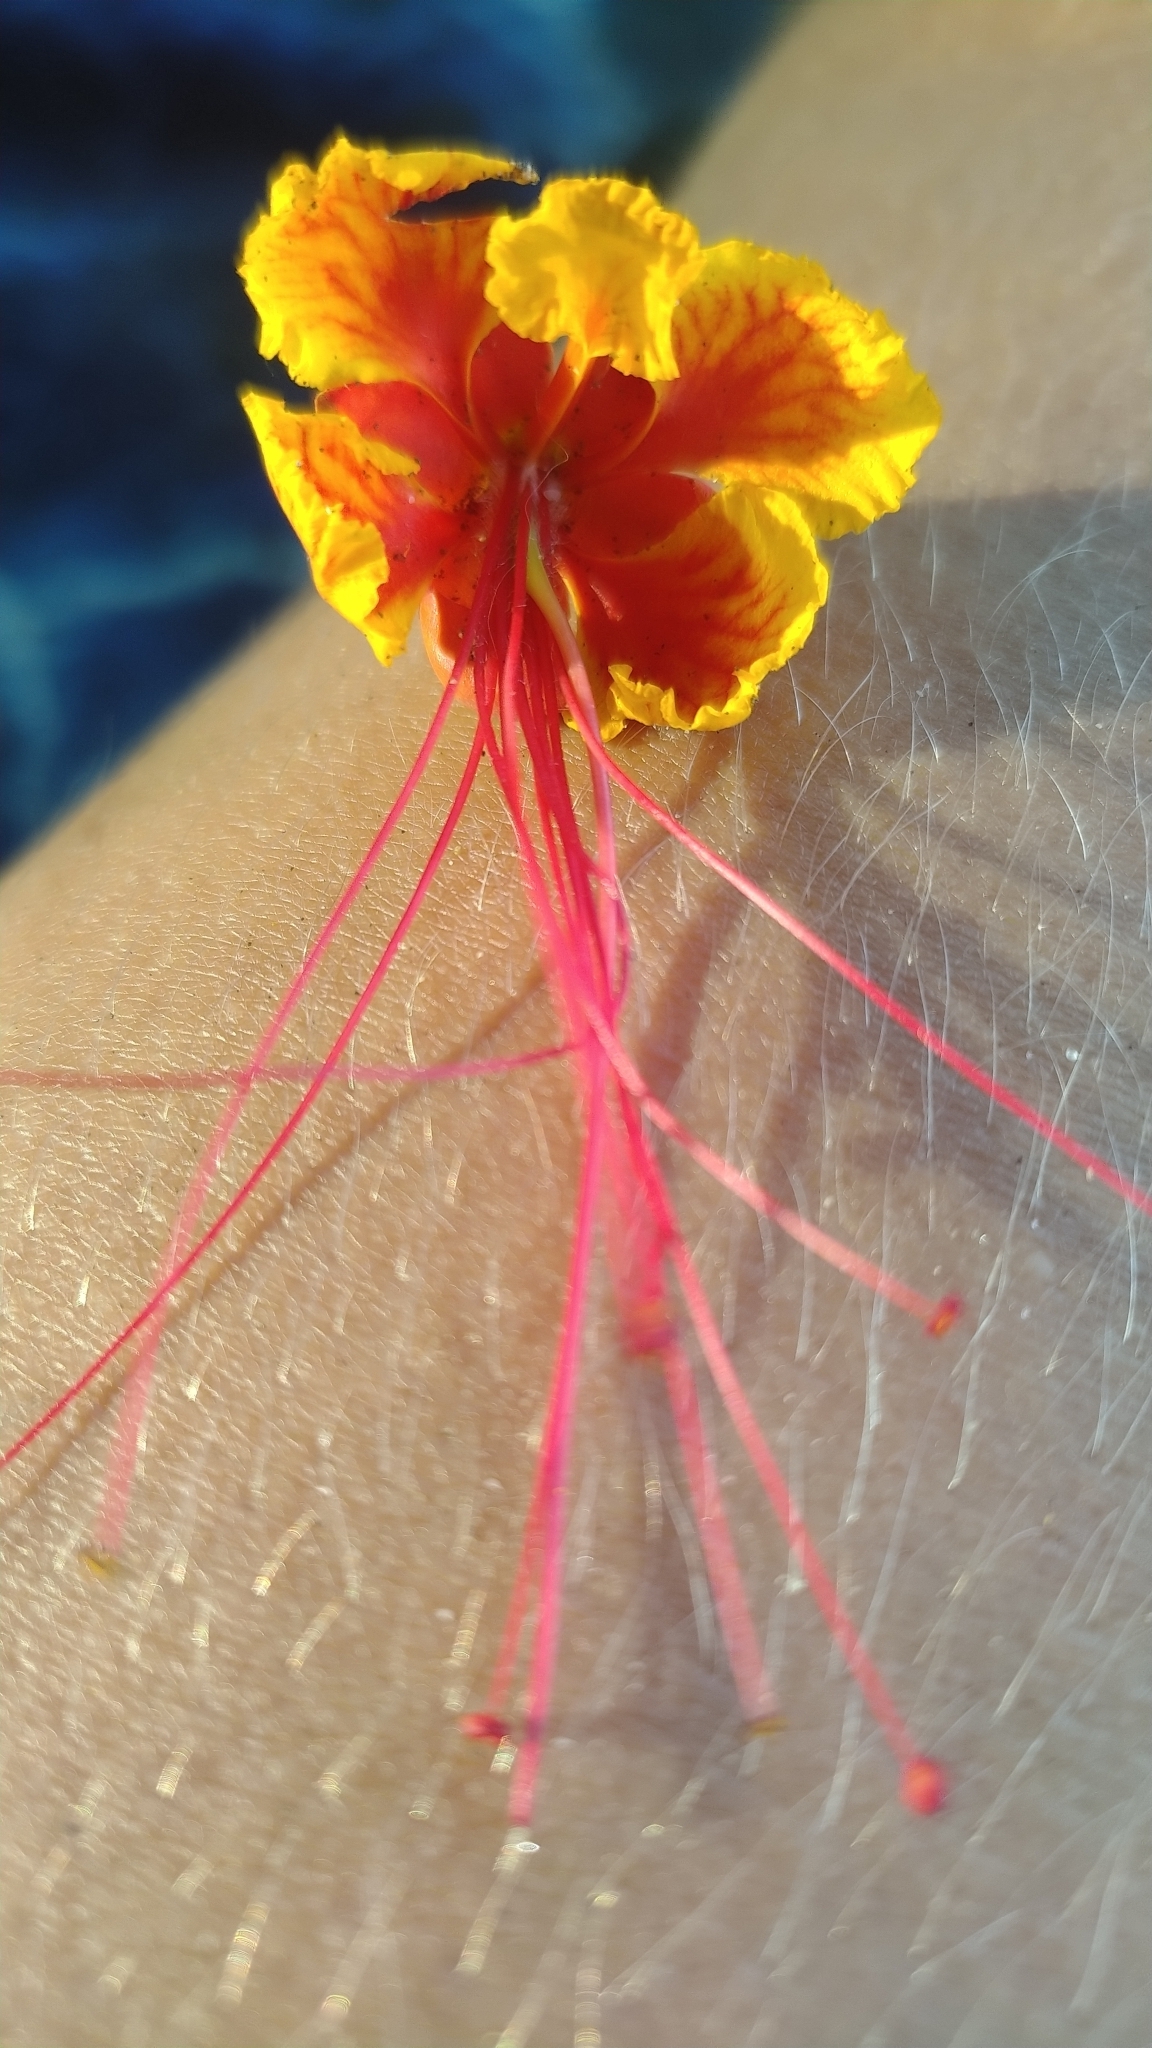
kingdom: Plantae
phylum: Tracheophyta
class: Magnoliopsida
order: Fabales
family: Fabaceae
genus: Caesalpinia
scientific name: Caesalpinia pulcherrima
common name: Pride-of-barbados
